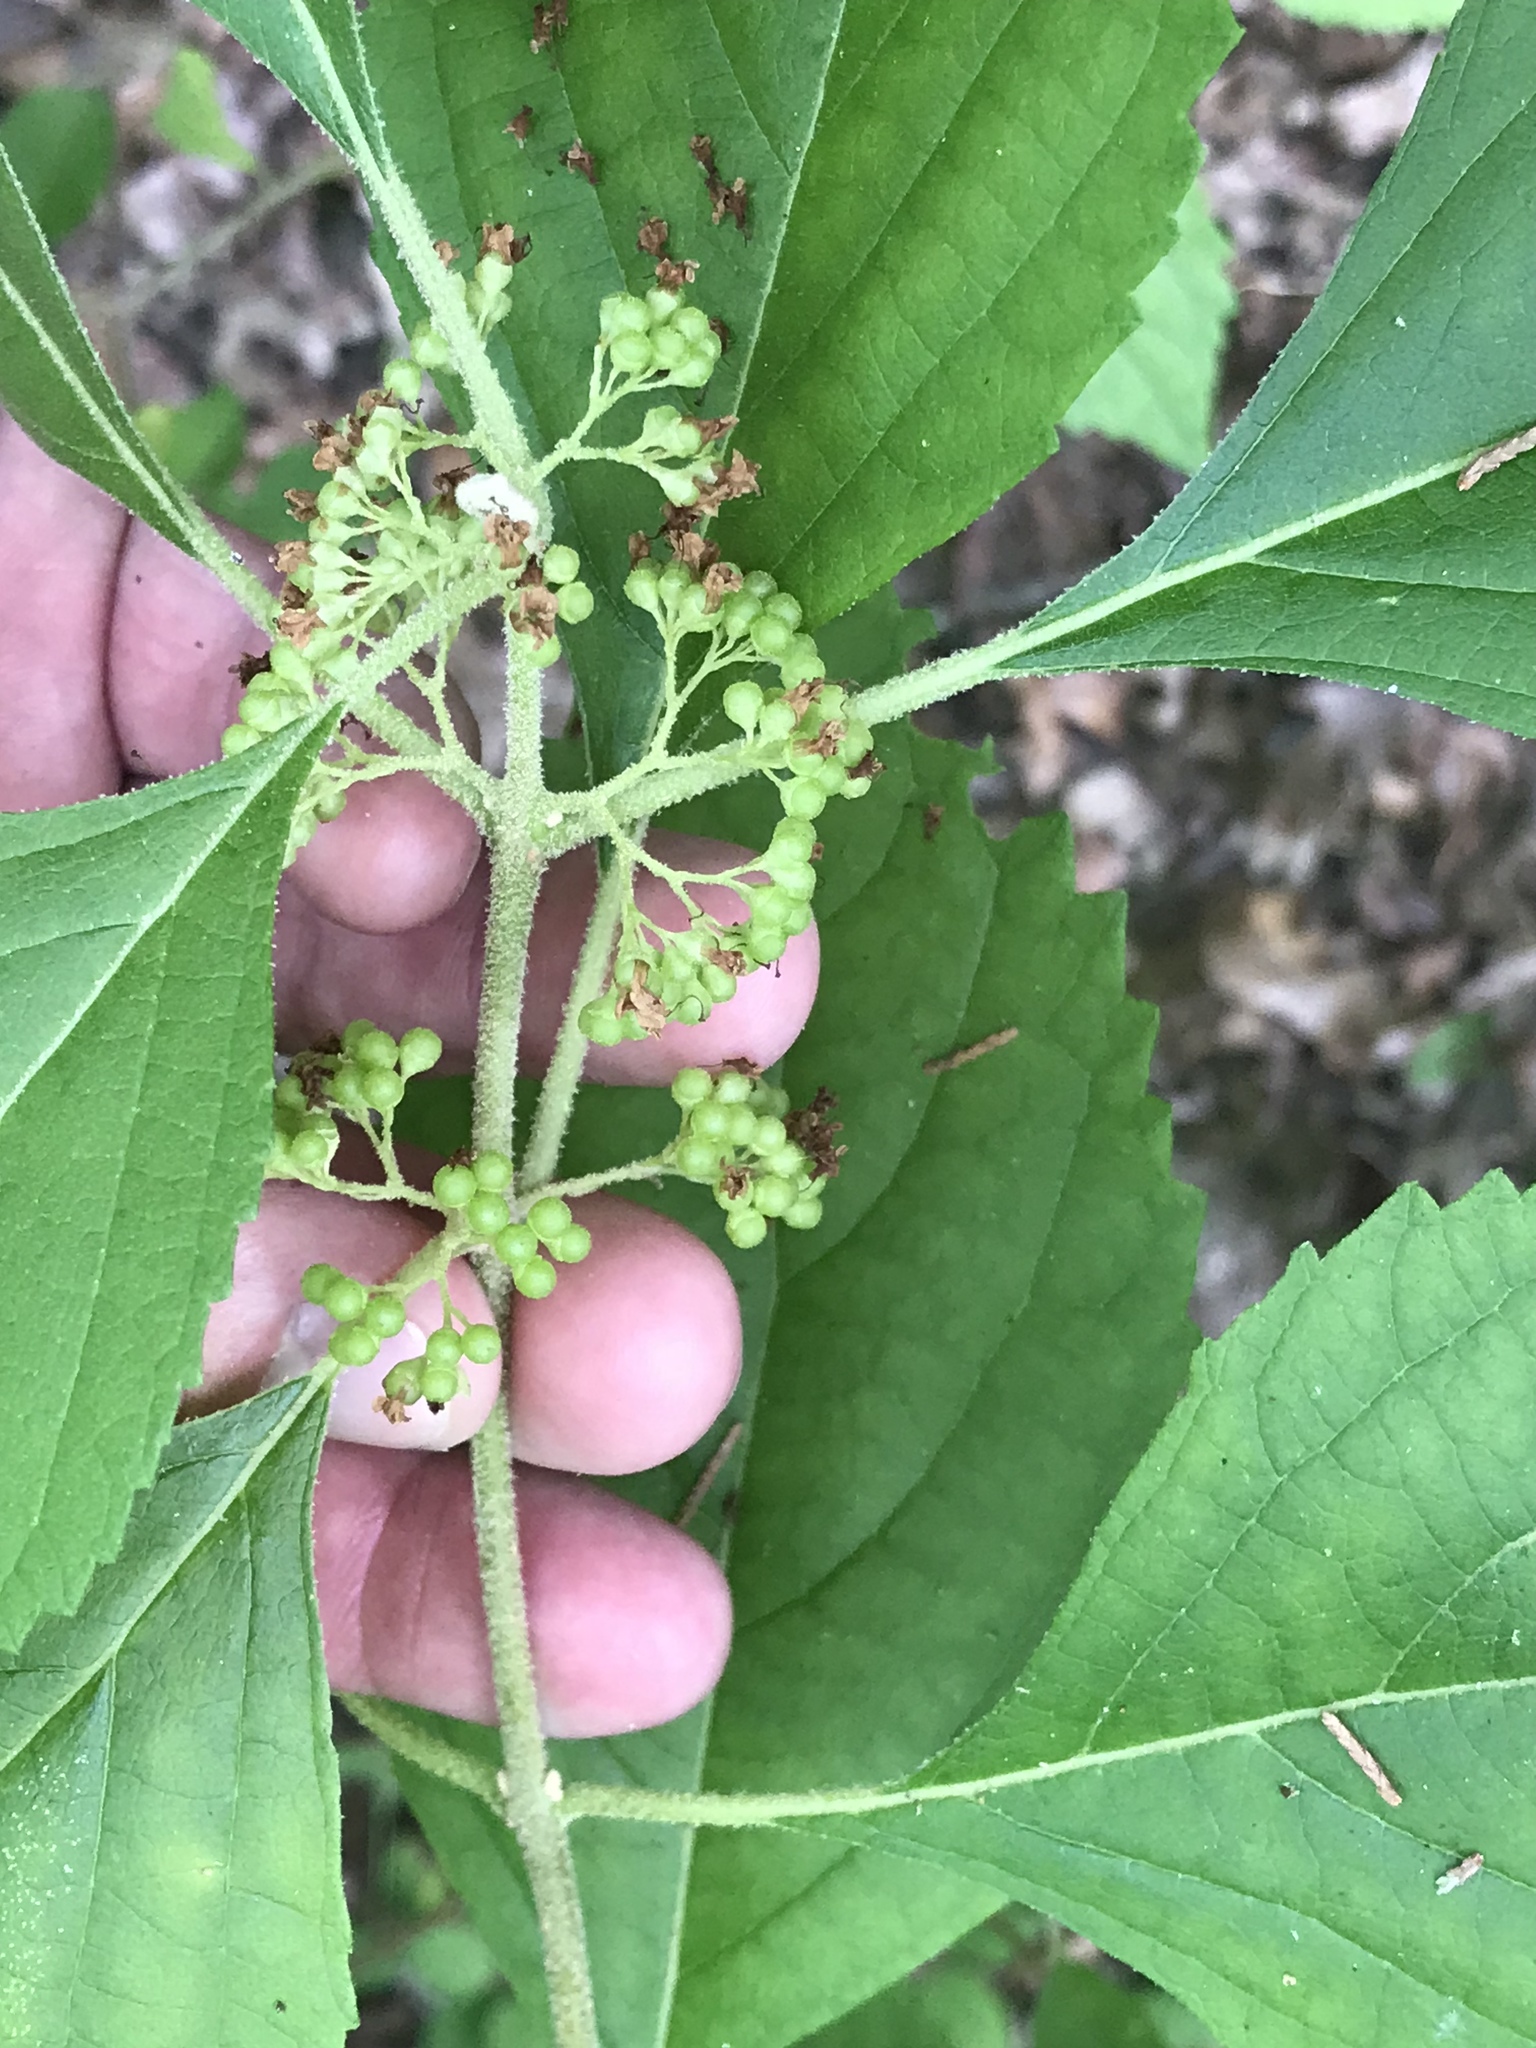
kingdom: Plantae
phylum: Tracheophyta
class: Magnoliopsida
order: Lamiales
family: Lamiaceae
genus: Callicarpa
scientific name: Callicarpa americana
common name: American beautyberry
